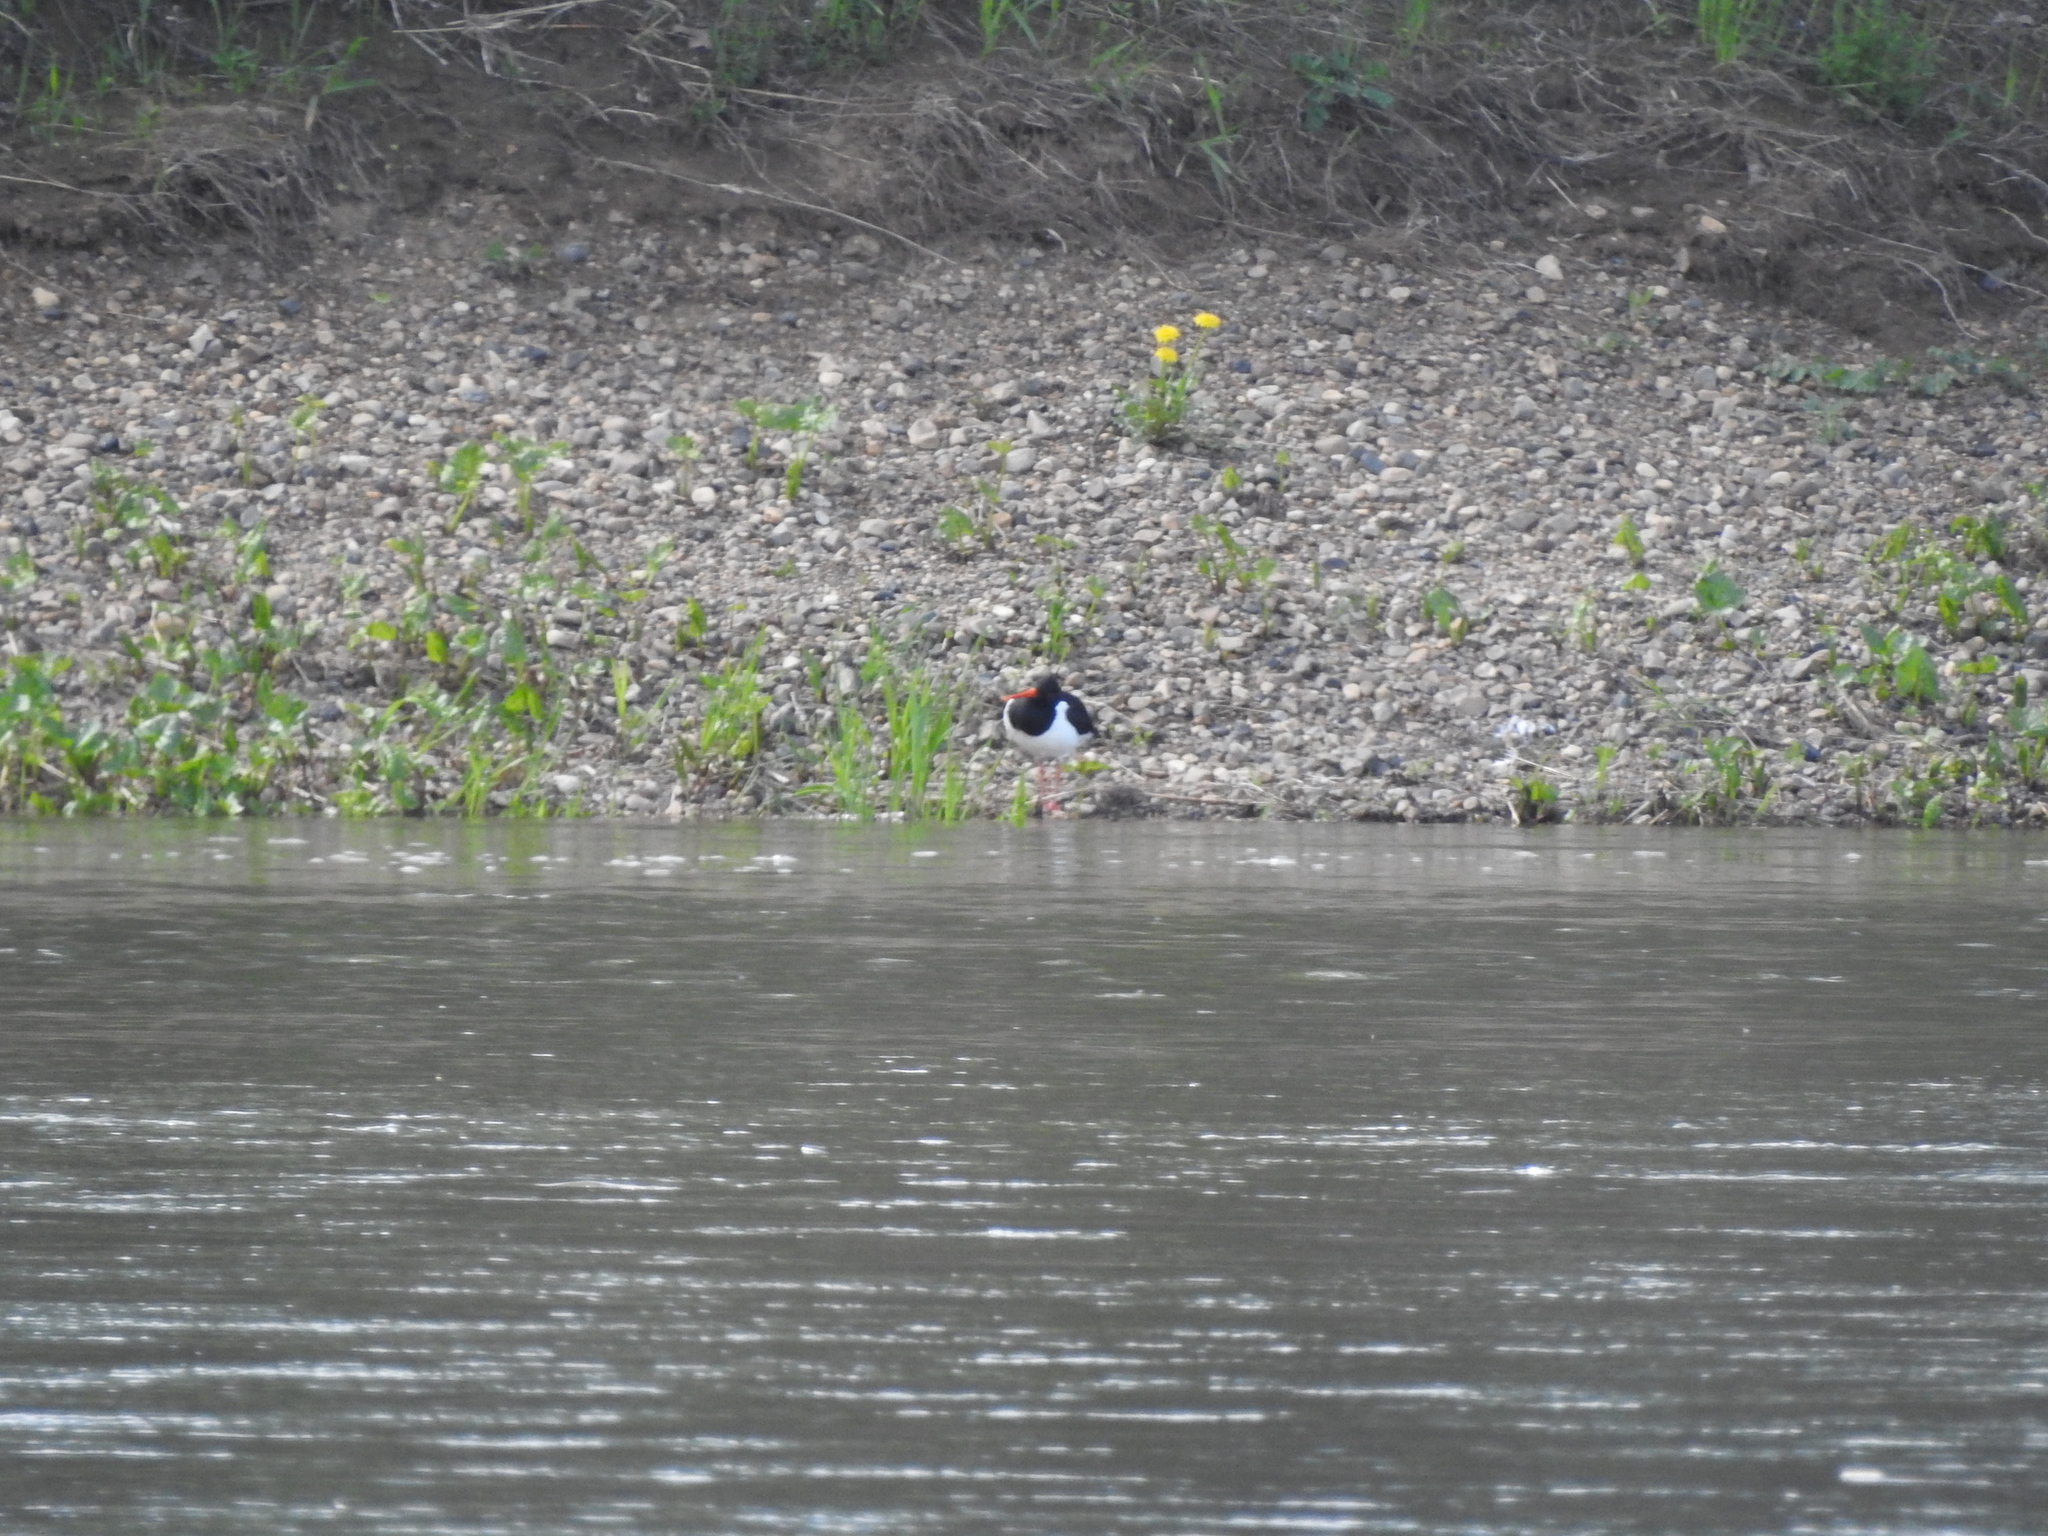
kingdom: Animalia
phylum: Chordata
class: Aves
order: Charadriiformes
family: Haematopodidae
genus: Haematopus
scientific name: Haematopus ostralegus
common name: Eurasian oystercatcher
